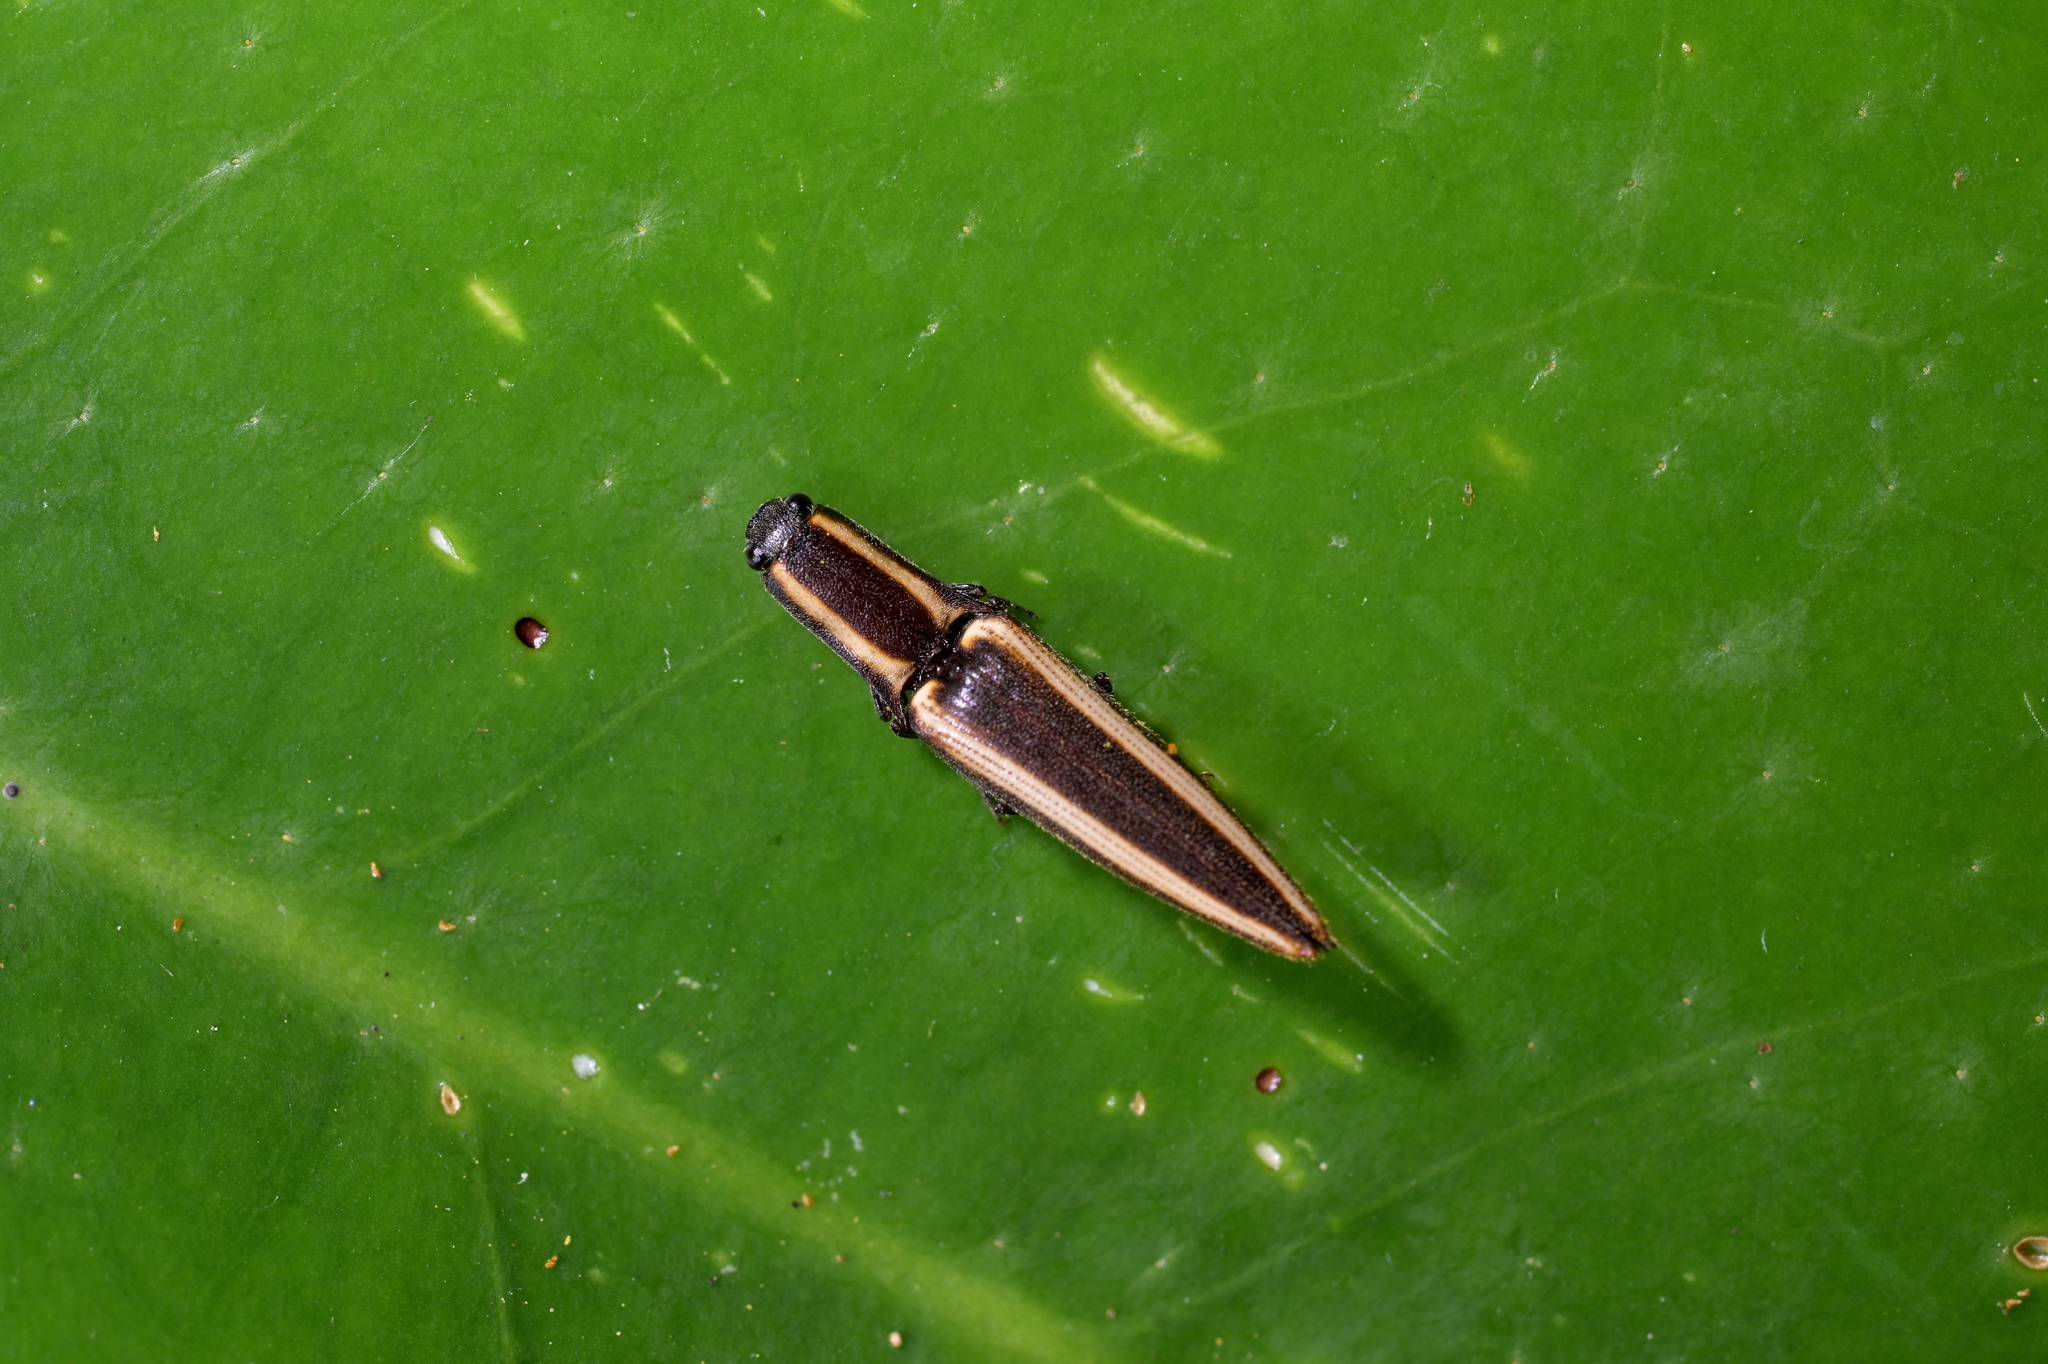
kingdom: Animalia
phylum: Arthropoda
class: Insecta
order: Coleoptera
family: Elateridae
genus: Metablax
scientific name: Metablax
